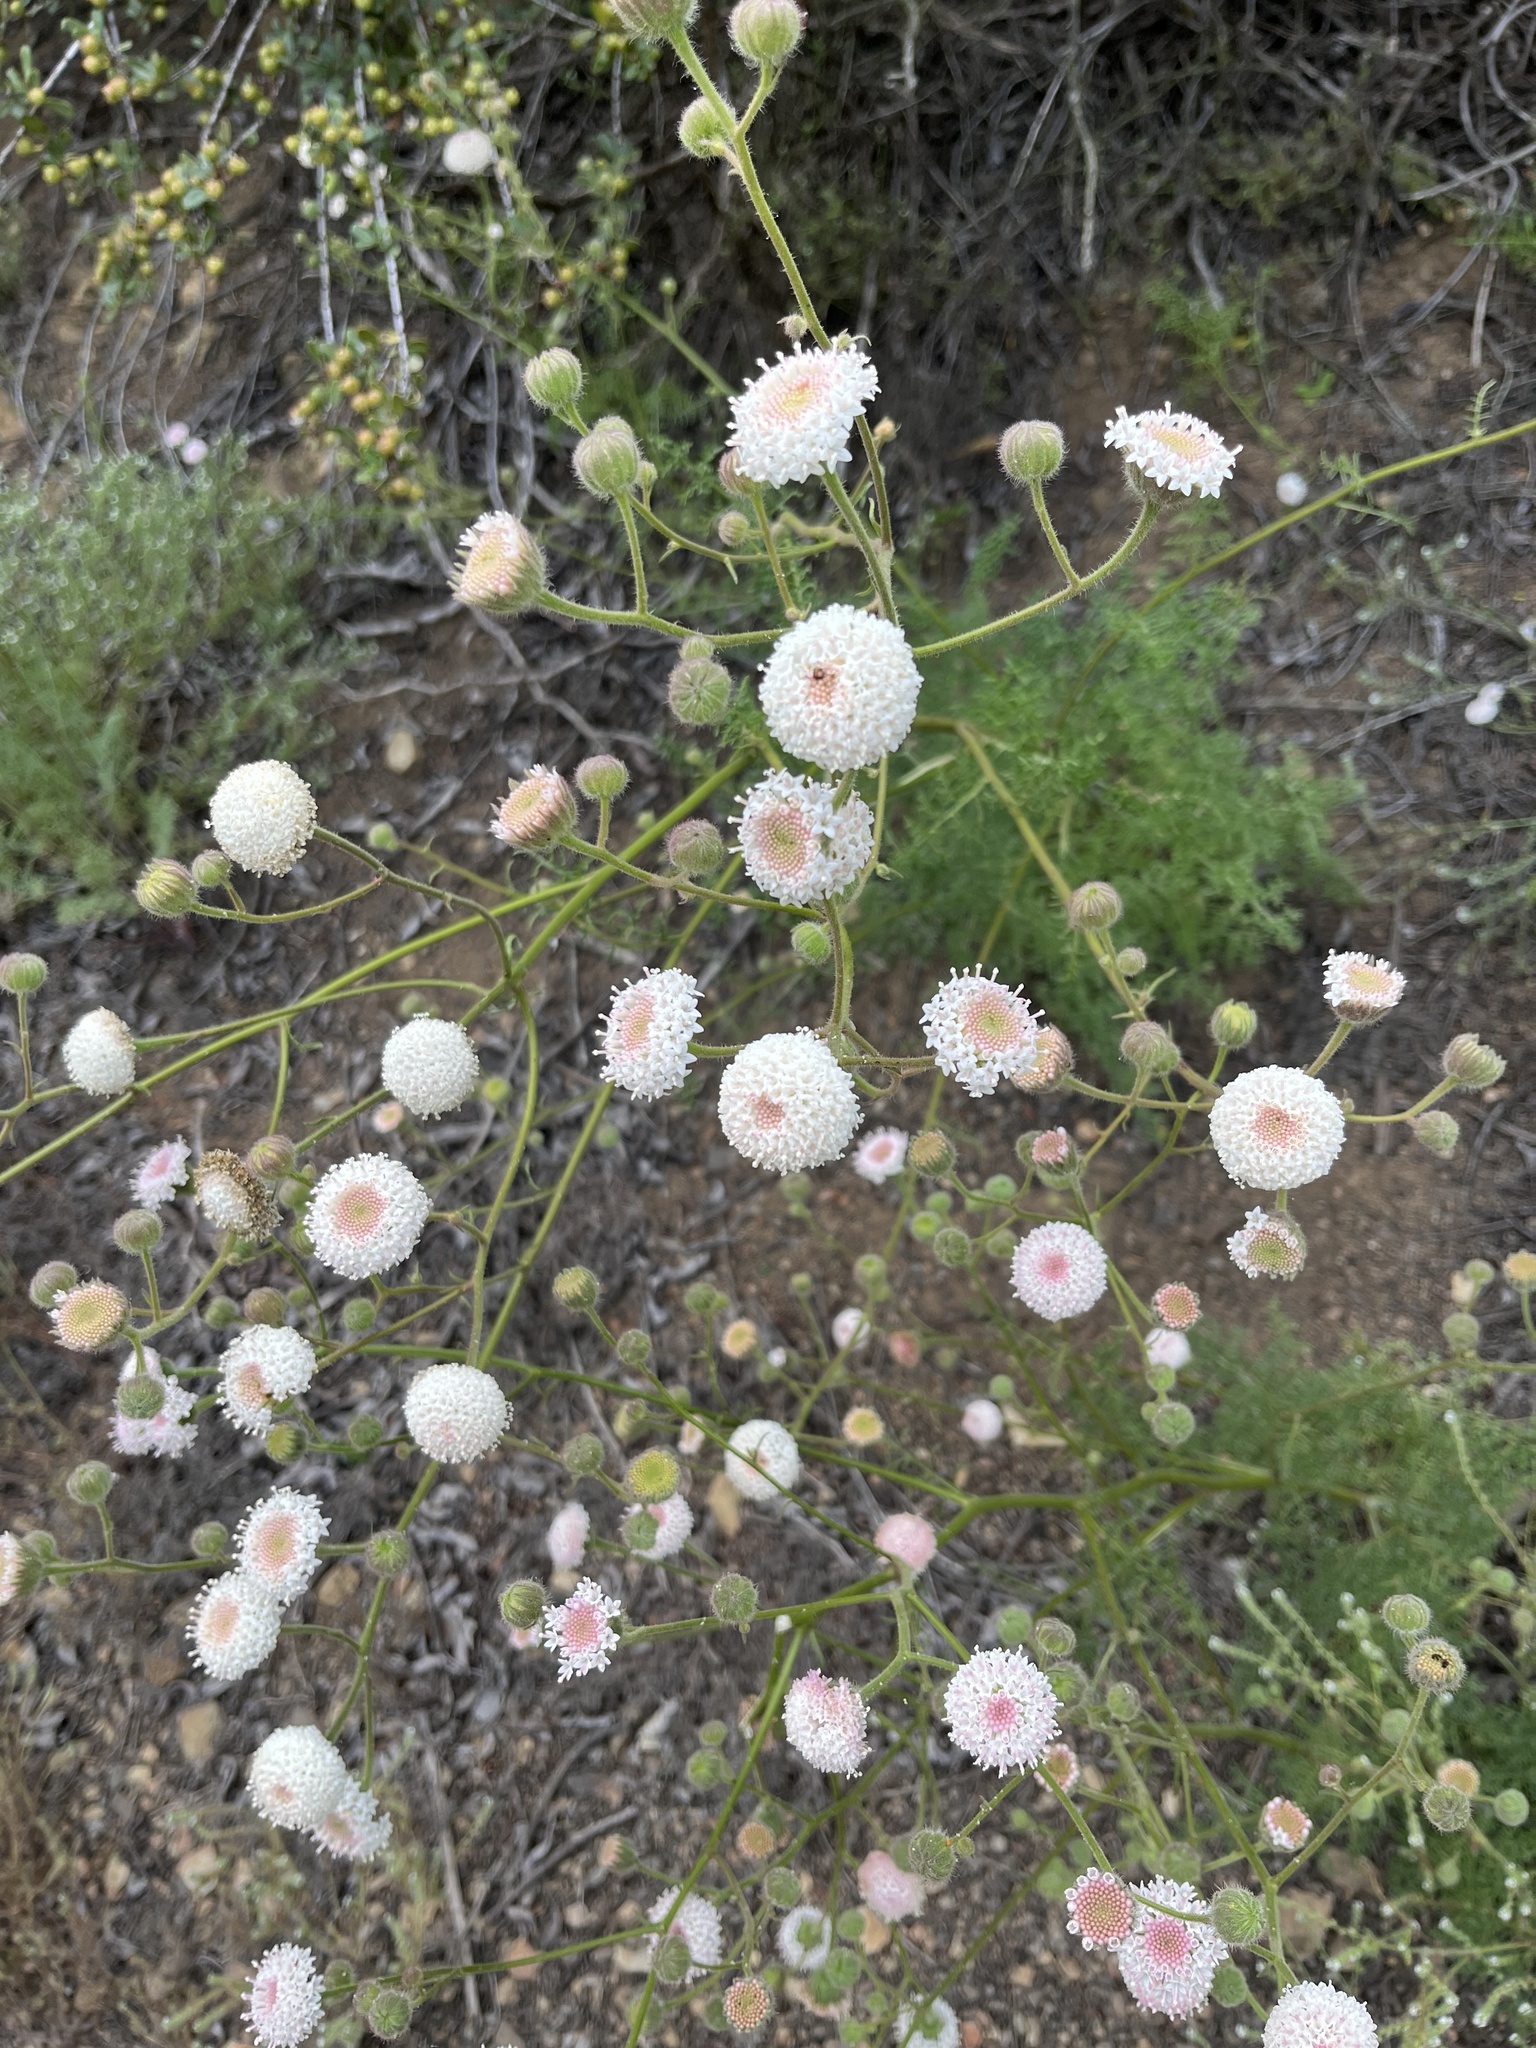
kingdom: Plantae
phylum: Tracheophyta
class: Magnoliopsida
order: Asterales
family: Asteraceae
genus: Chaenactis
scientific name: Chaenactis artemisiifolia
